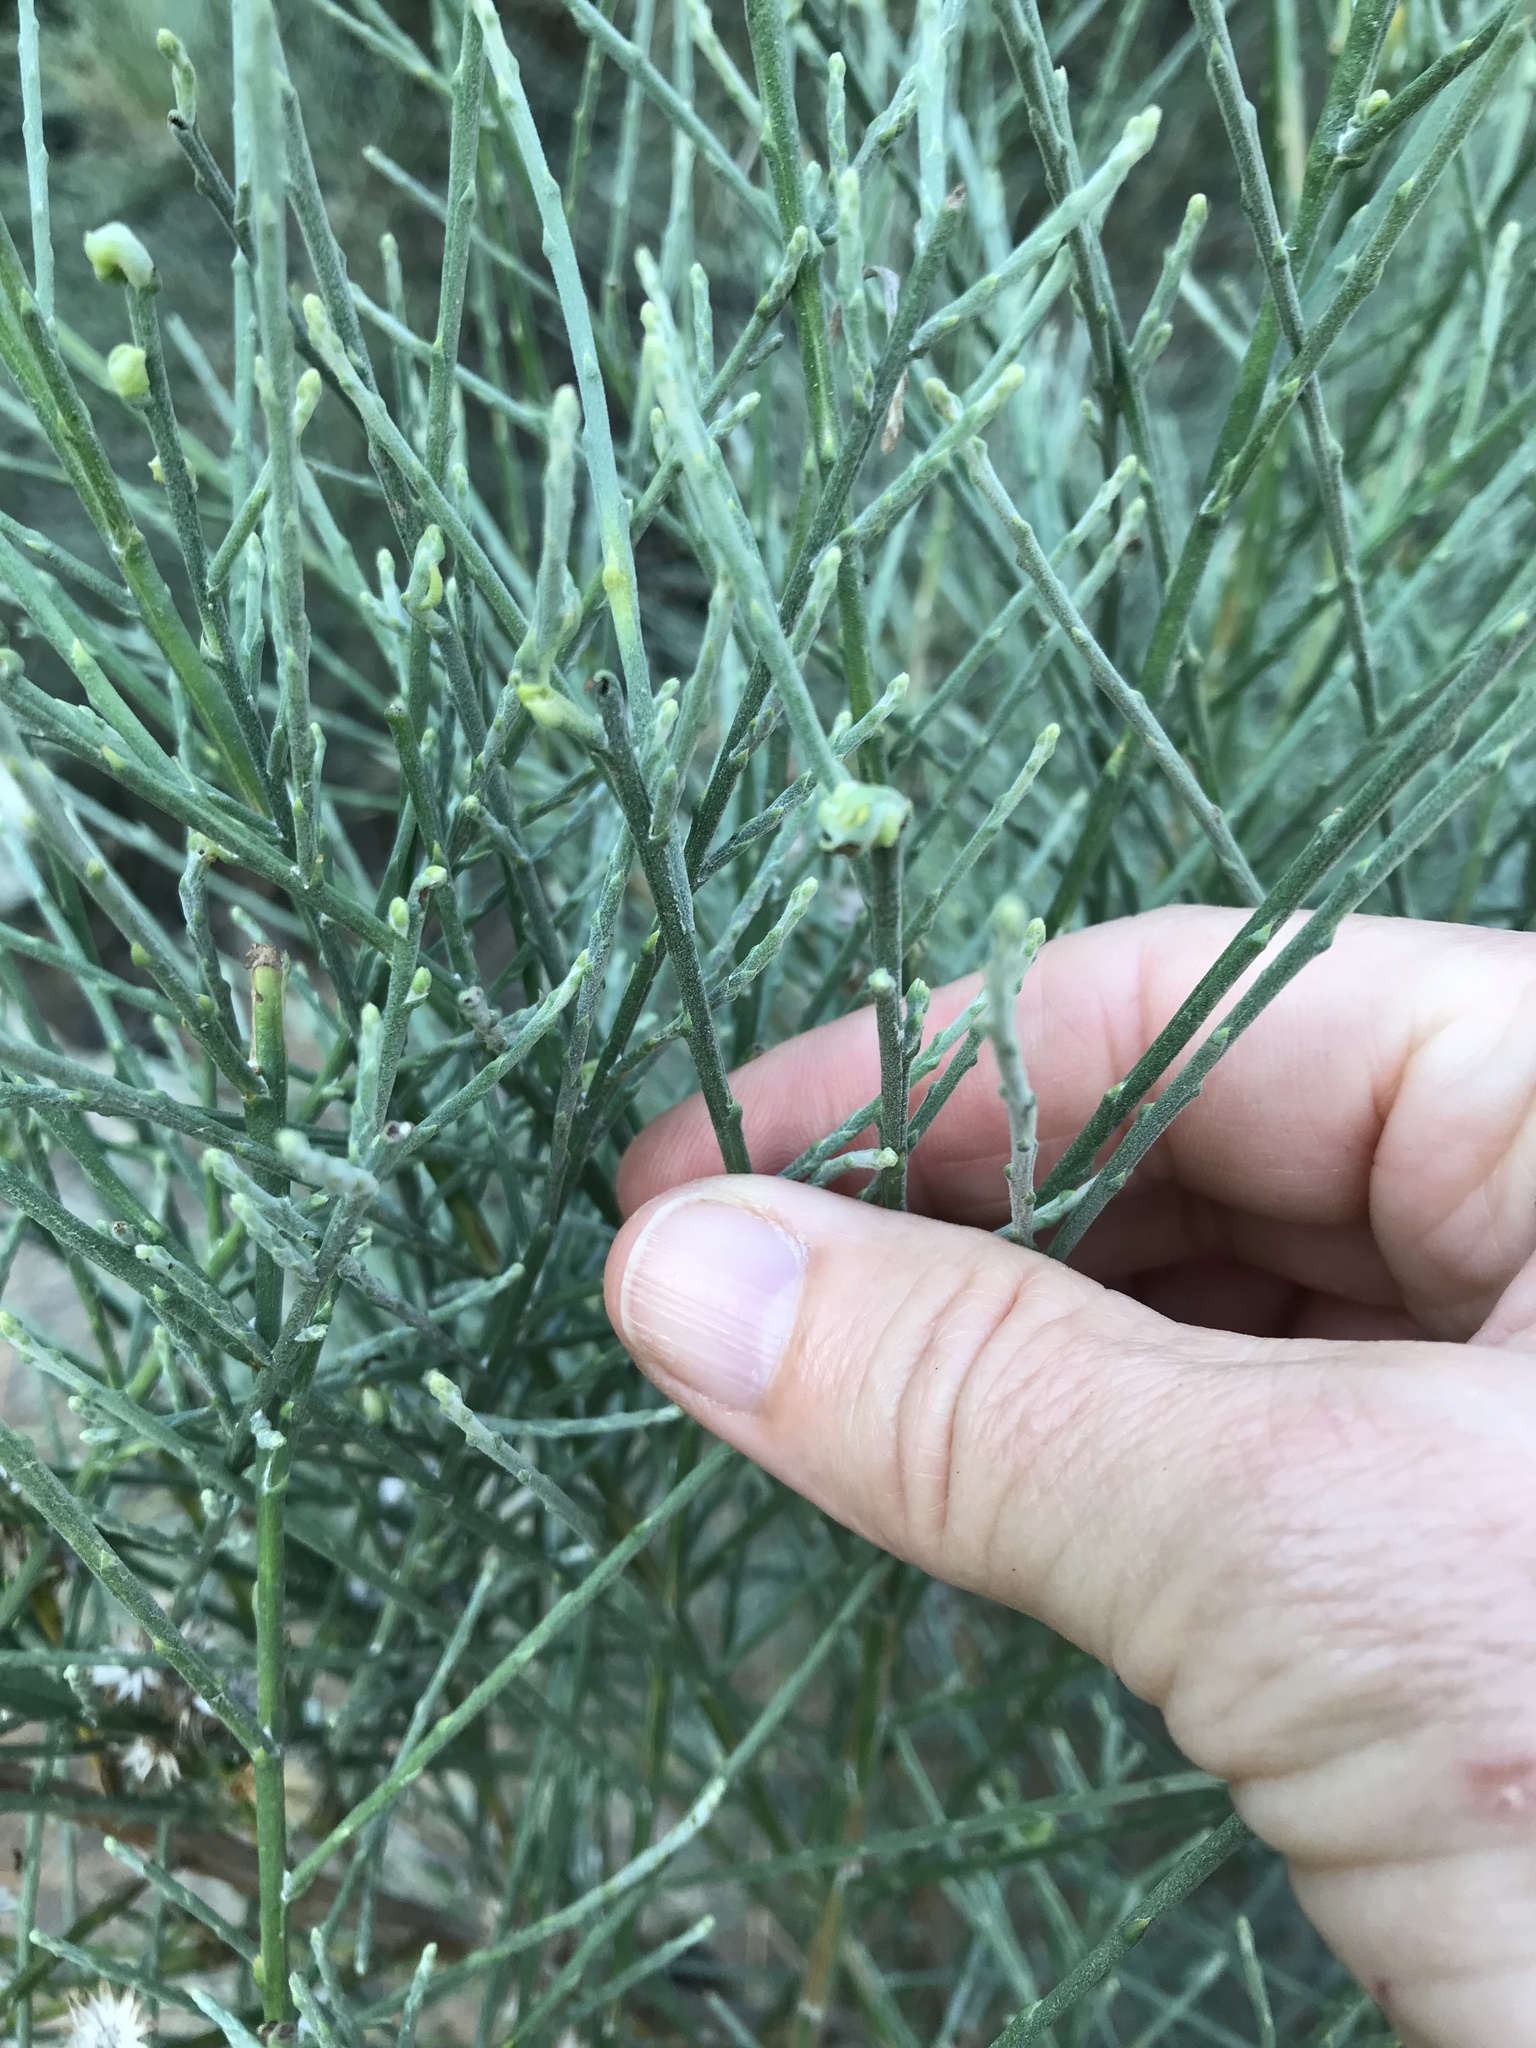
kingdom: Plantae
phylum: Tracheophyta
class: Magnoliopsida
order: Asterales
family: Asteraceae
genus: Lepidospartum
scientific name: Lepidospartum squamatum
